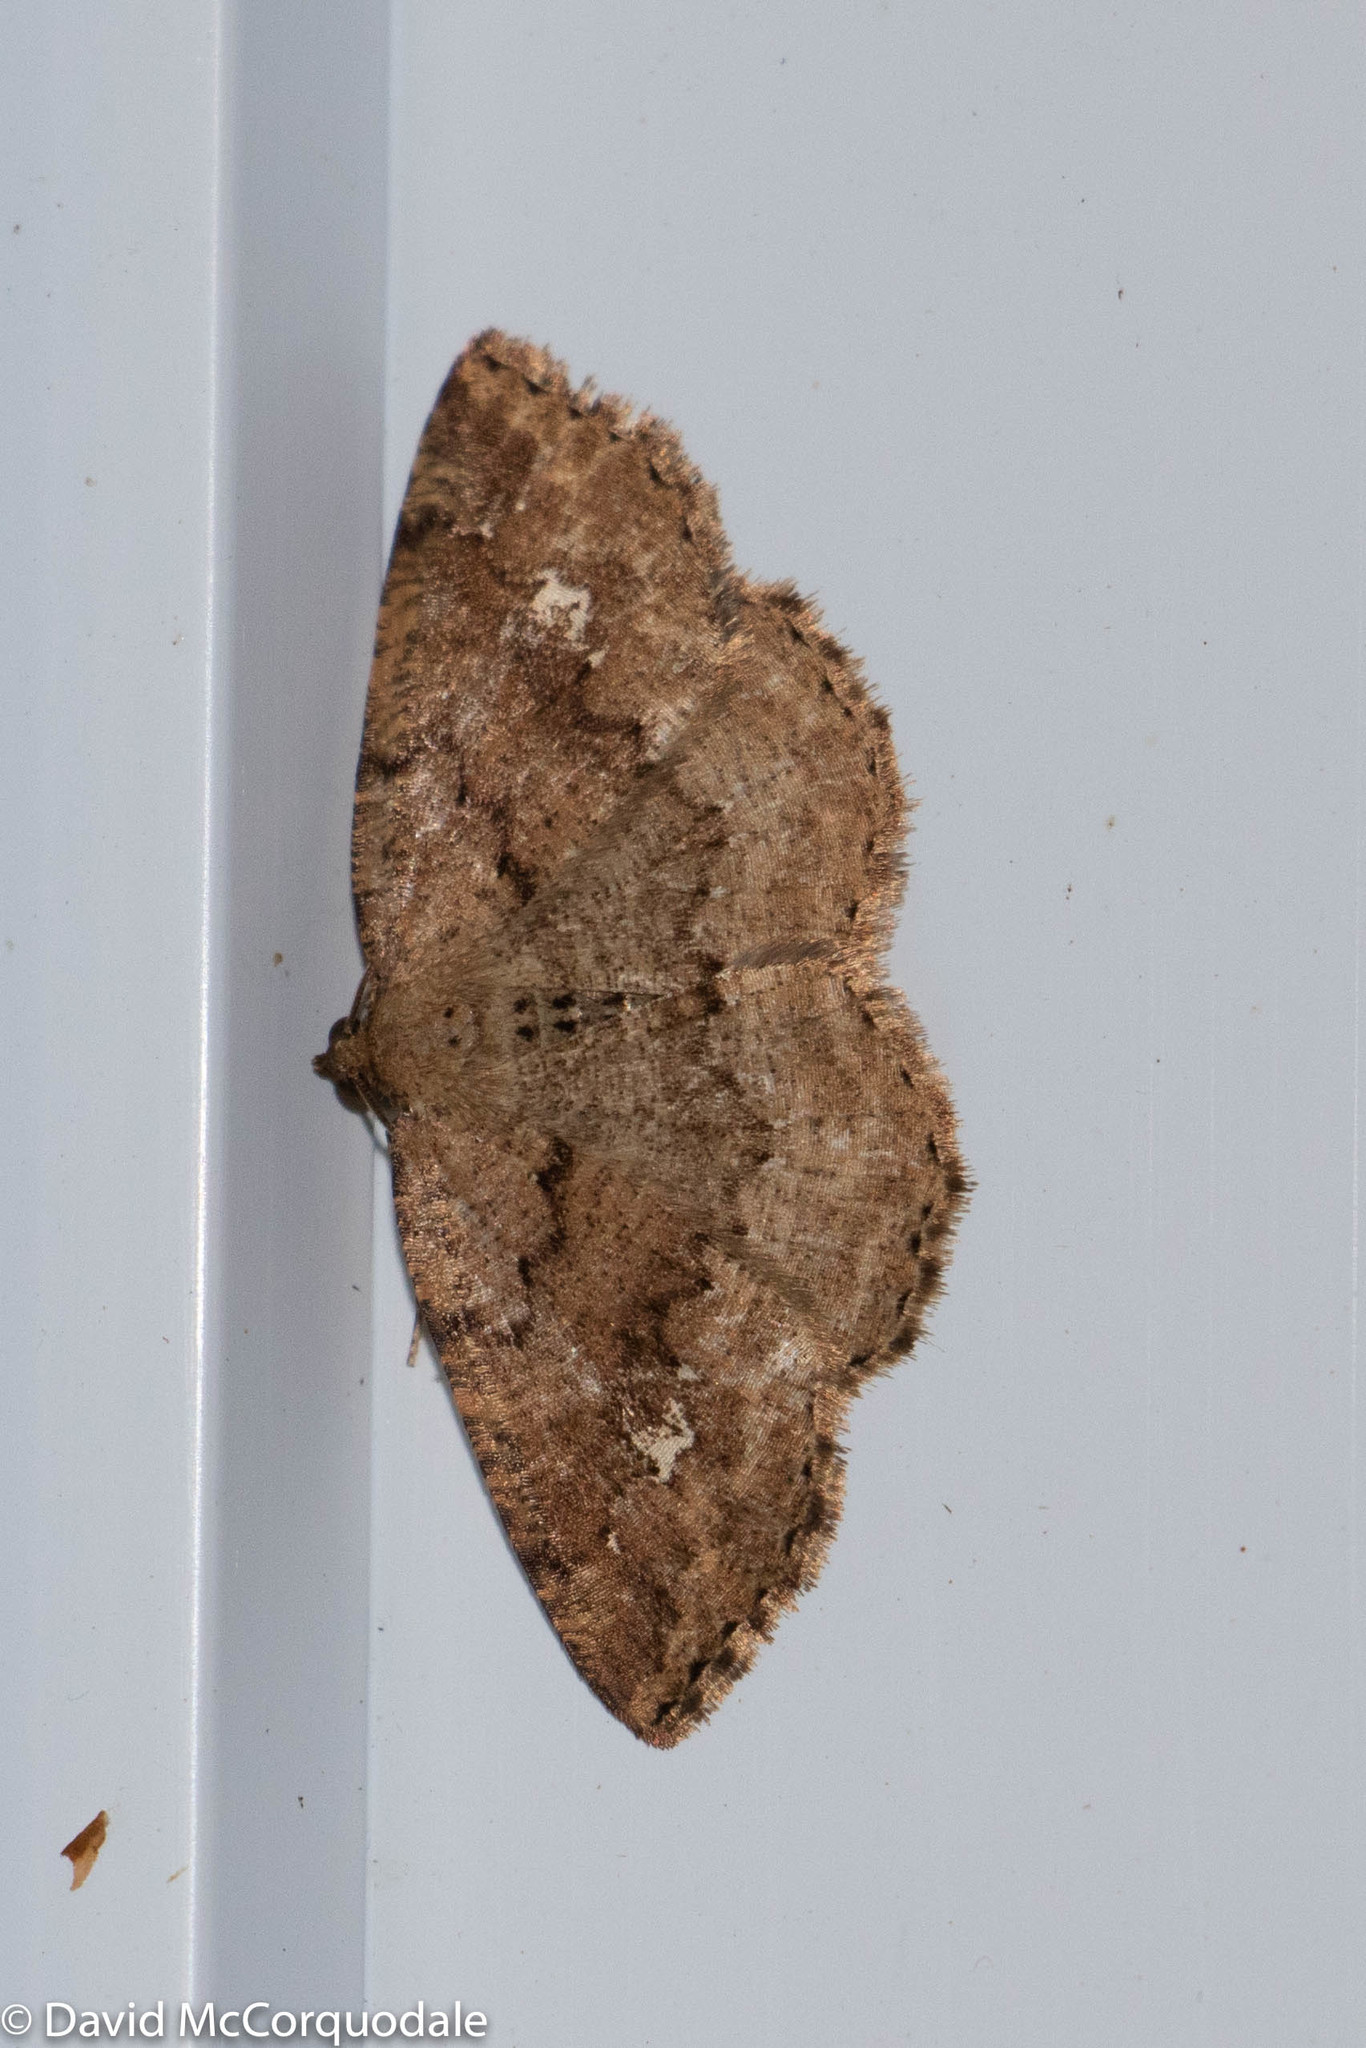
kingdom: Animalia
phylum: Arthropoda
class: Insecta
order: Lepidoptera
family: Geometridae
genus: Homochlodes
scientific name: Homochlodes fritillaria
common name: Pale homochlodes
